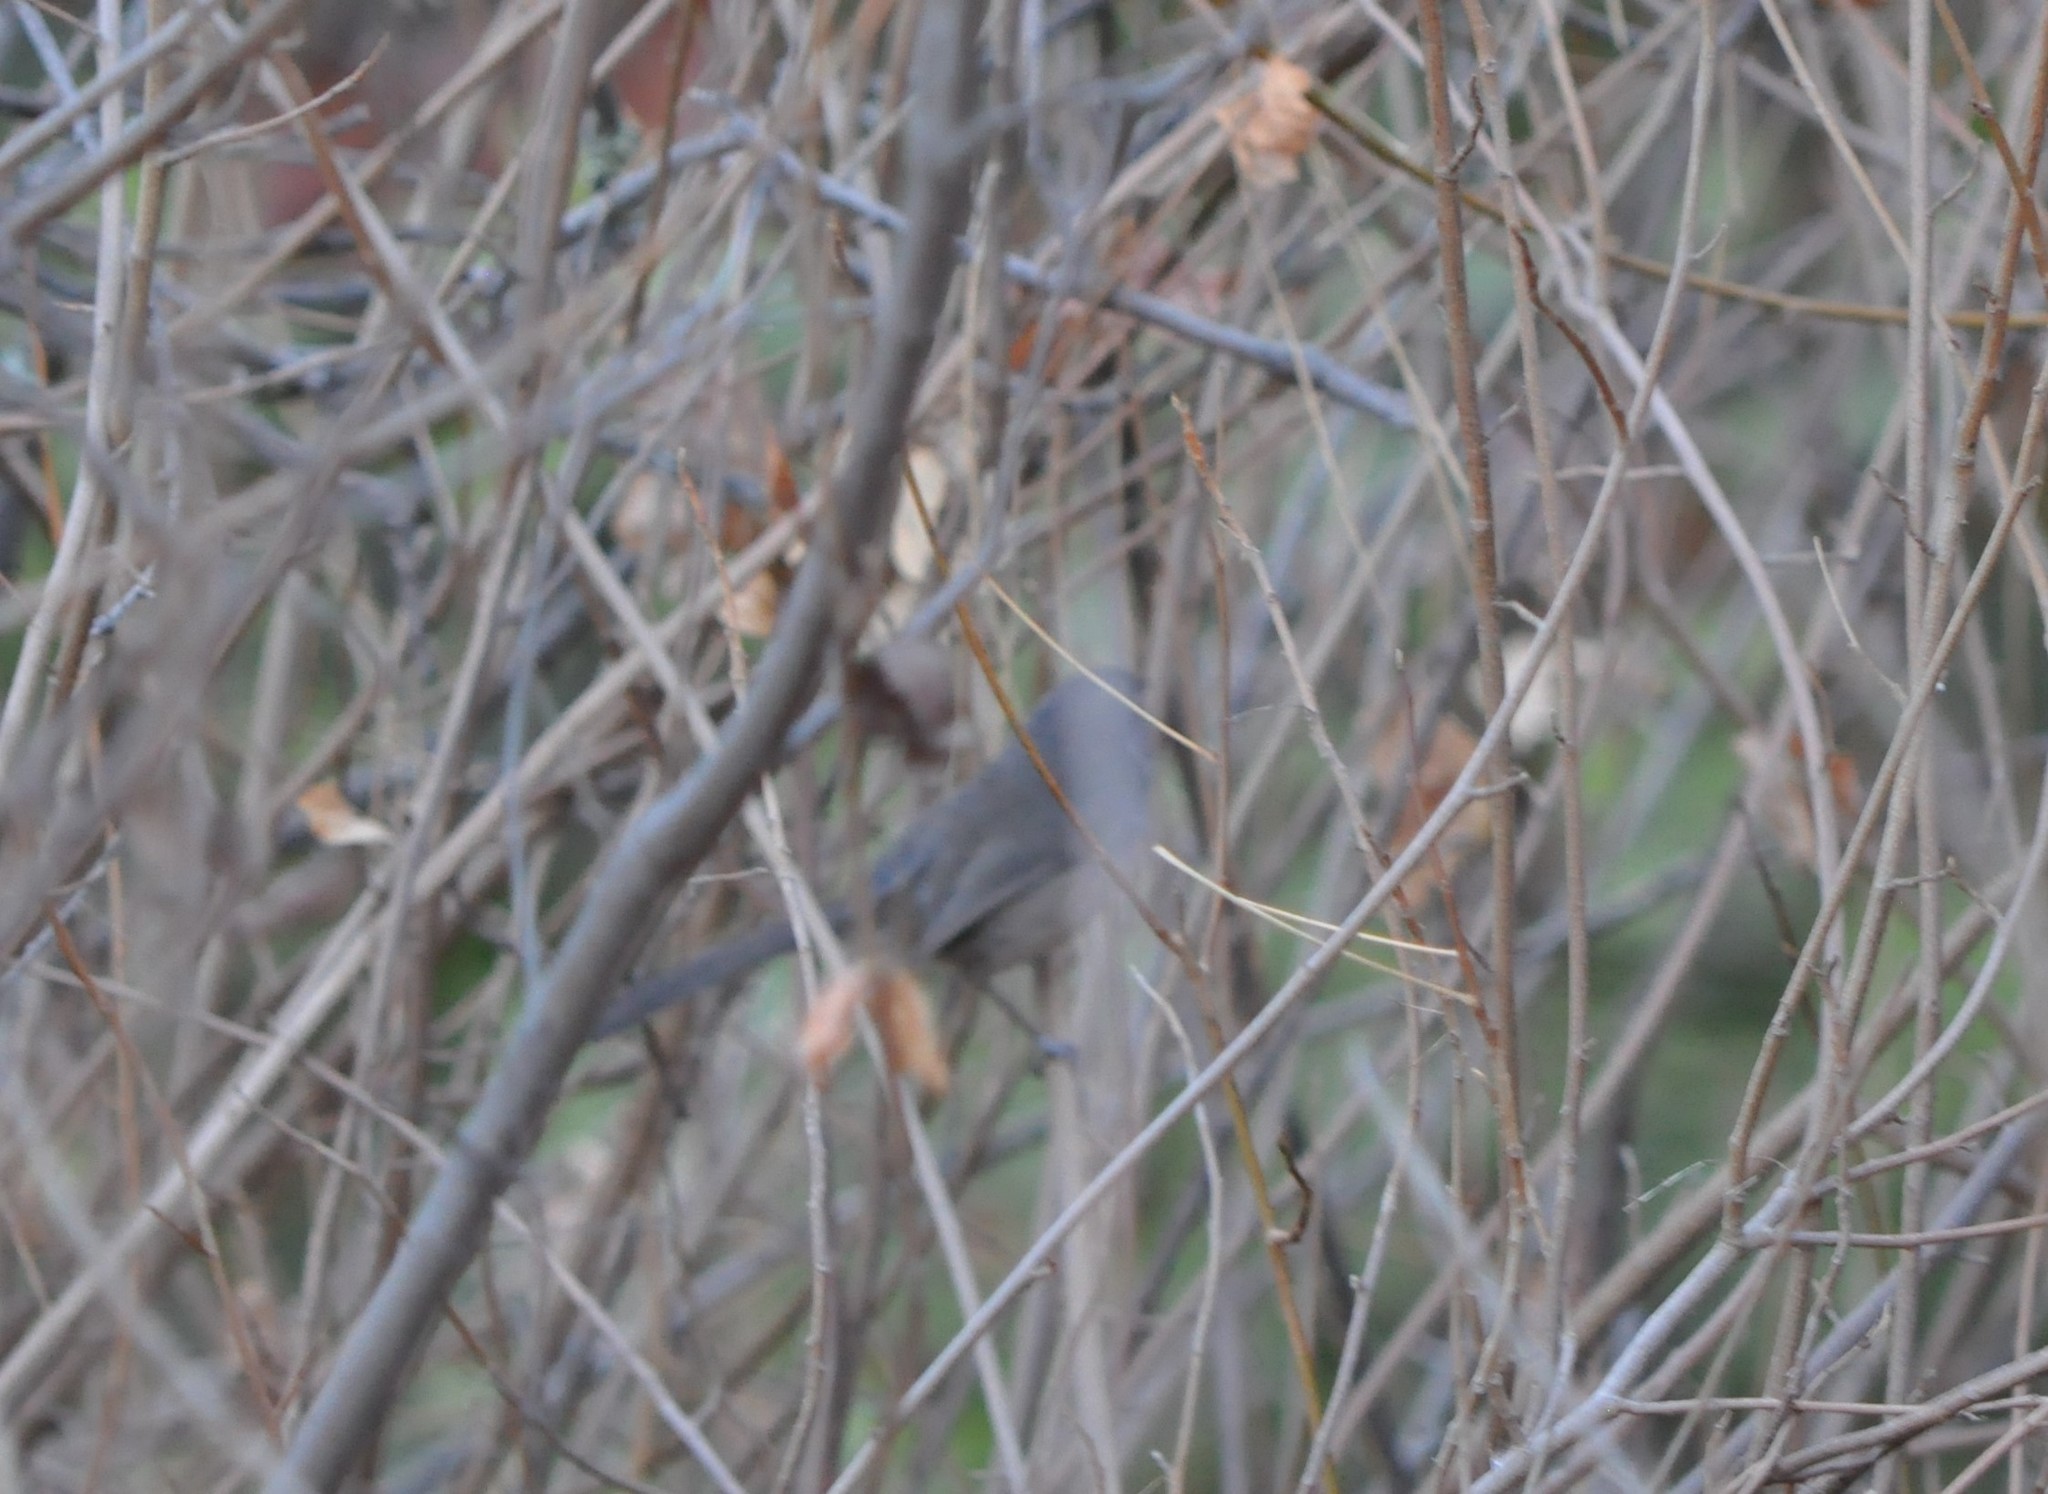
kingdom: Animalia
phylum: Chordata
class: Aves
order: Passeriformes
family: Sylviidae
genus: Chamaea
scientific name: Chamaea fasciata
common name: Wrentit
